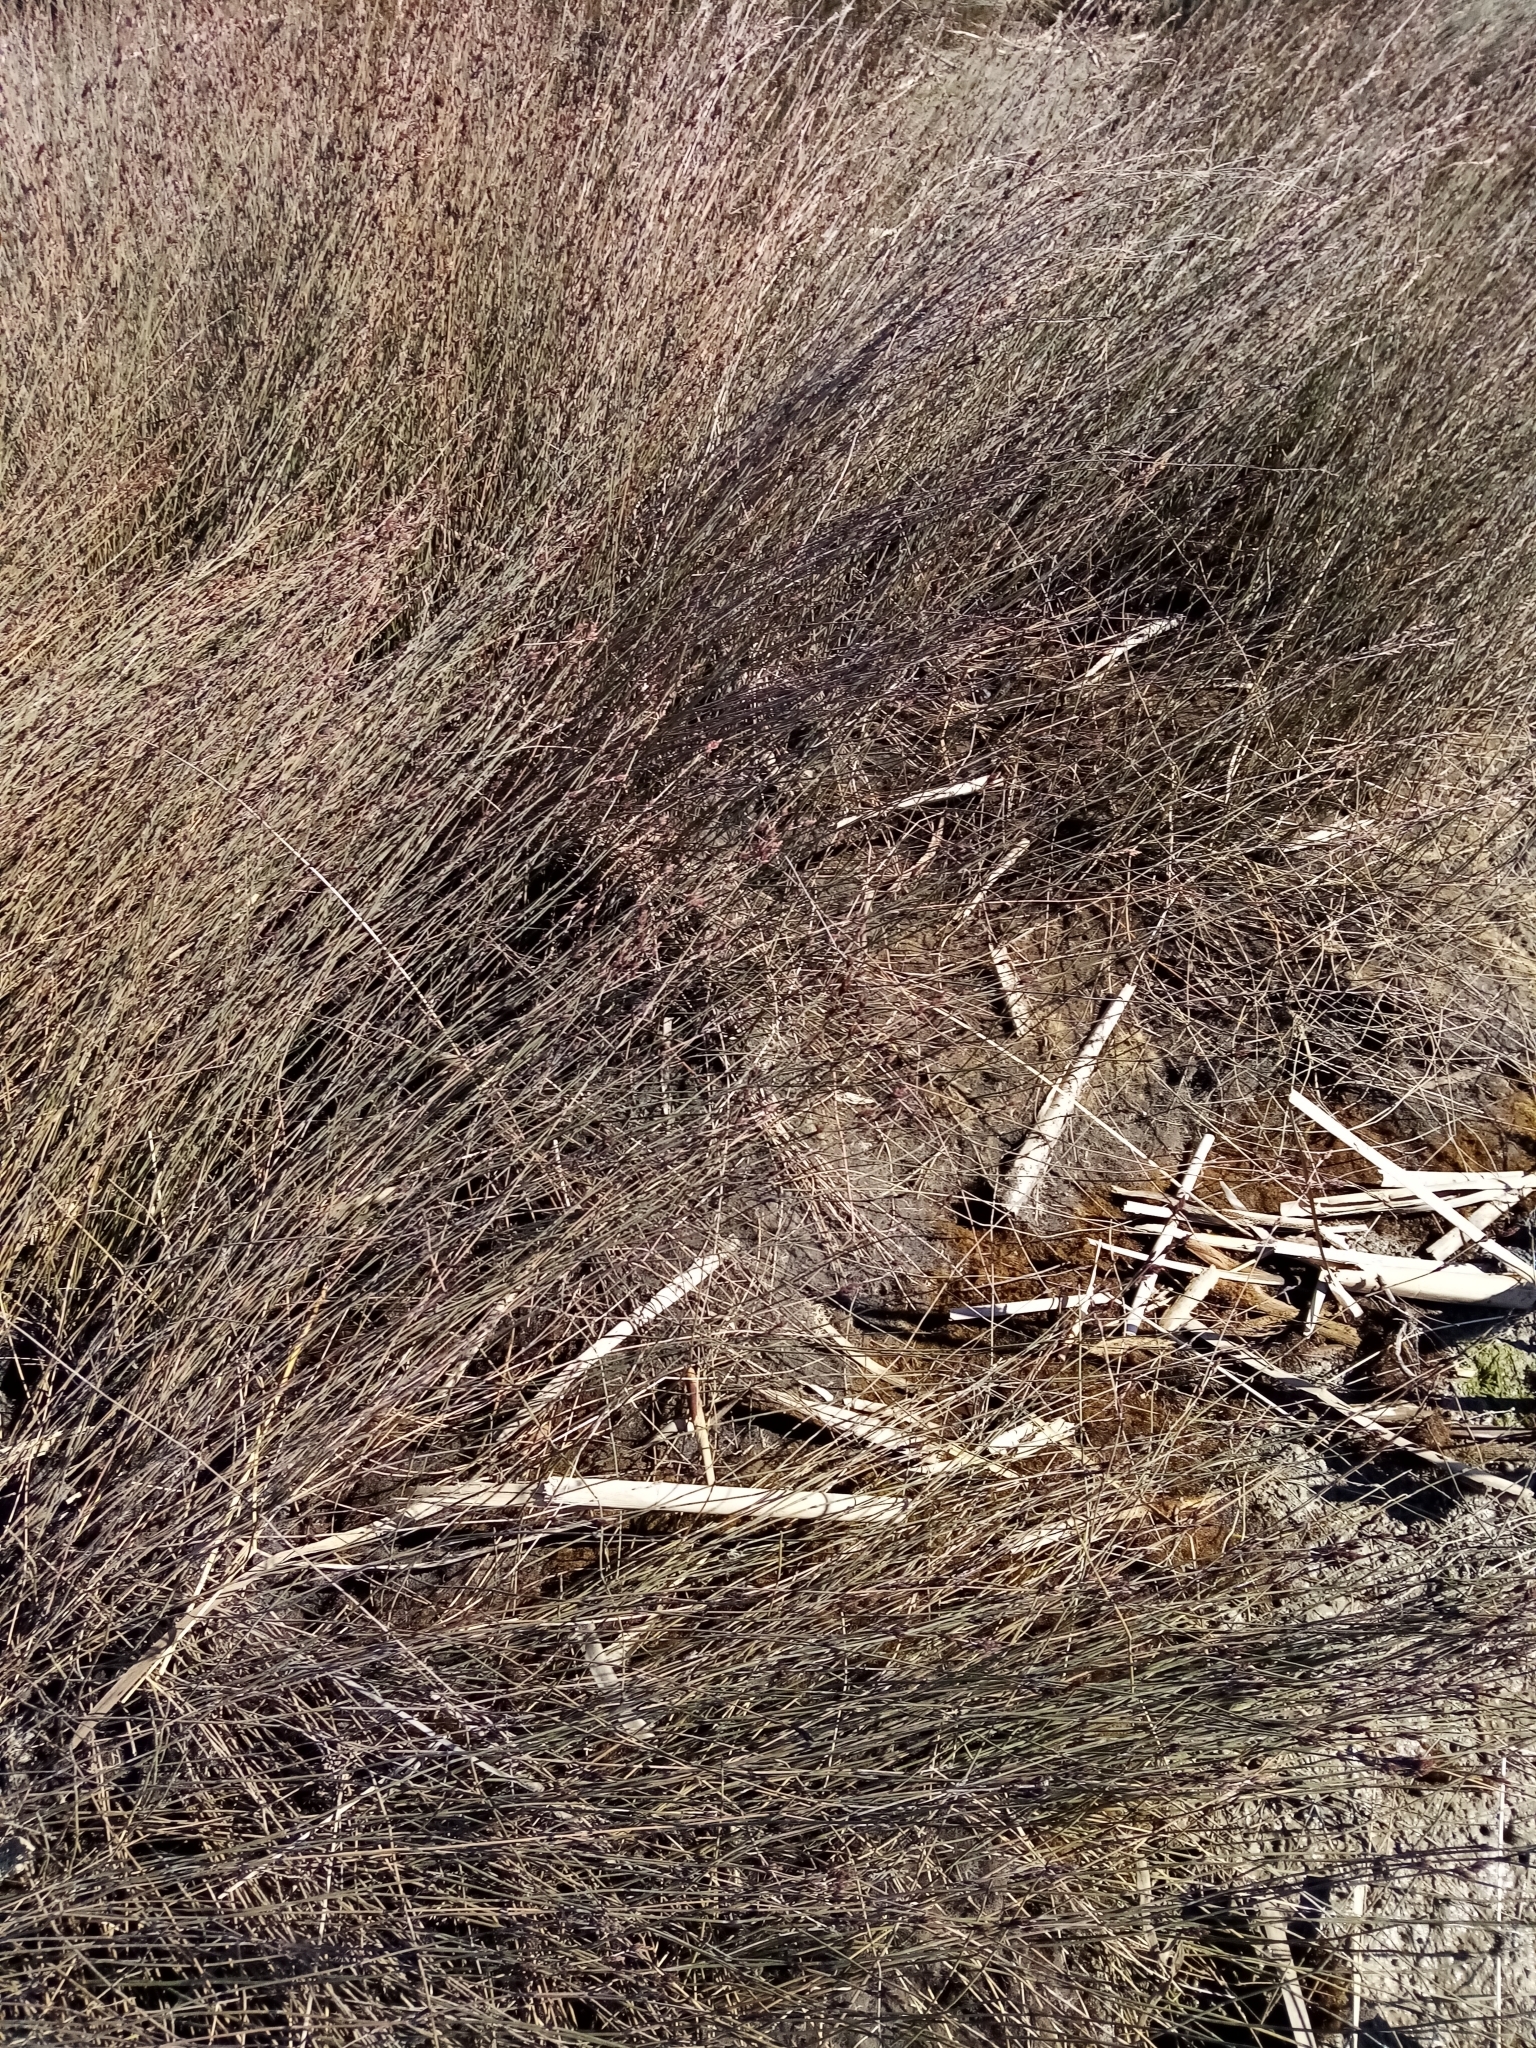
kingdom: Plantae
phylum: Tracheophyta
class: Liliopsida
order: Poales
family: Restionaceae
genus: Apodasmia
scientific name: Apodasmia similis
